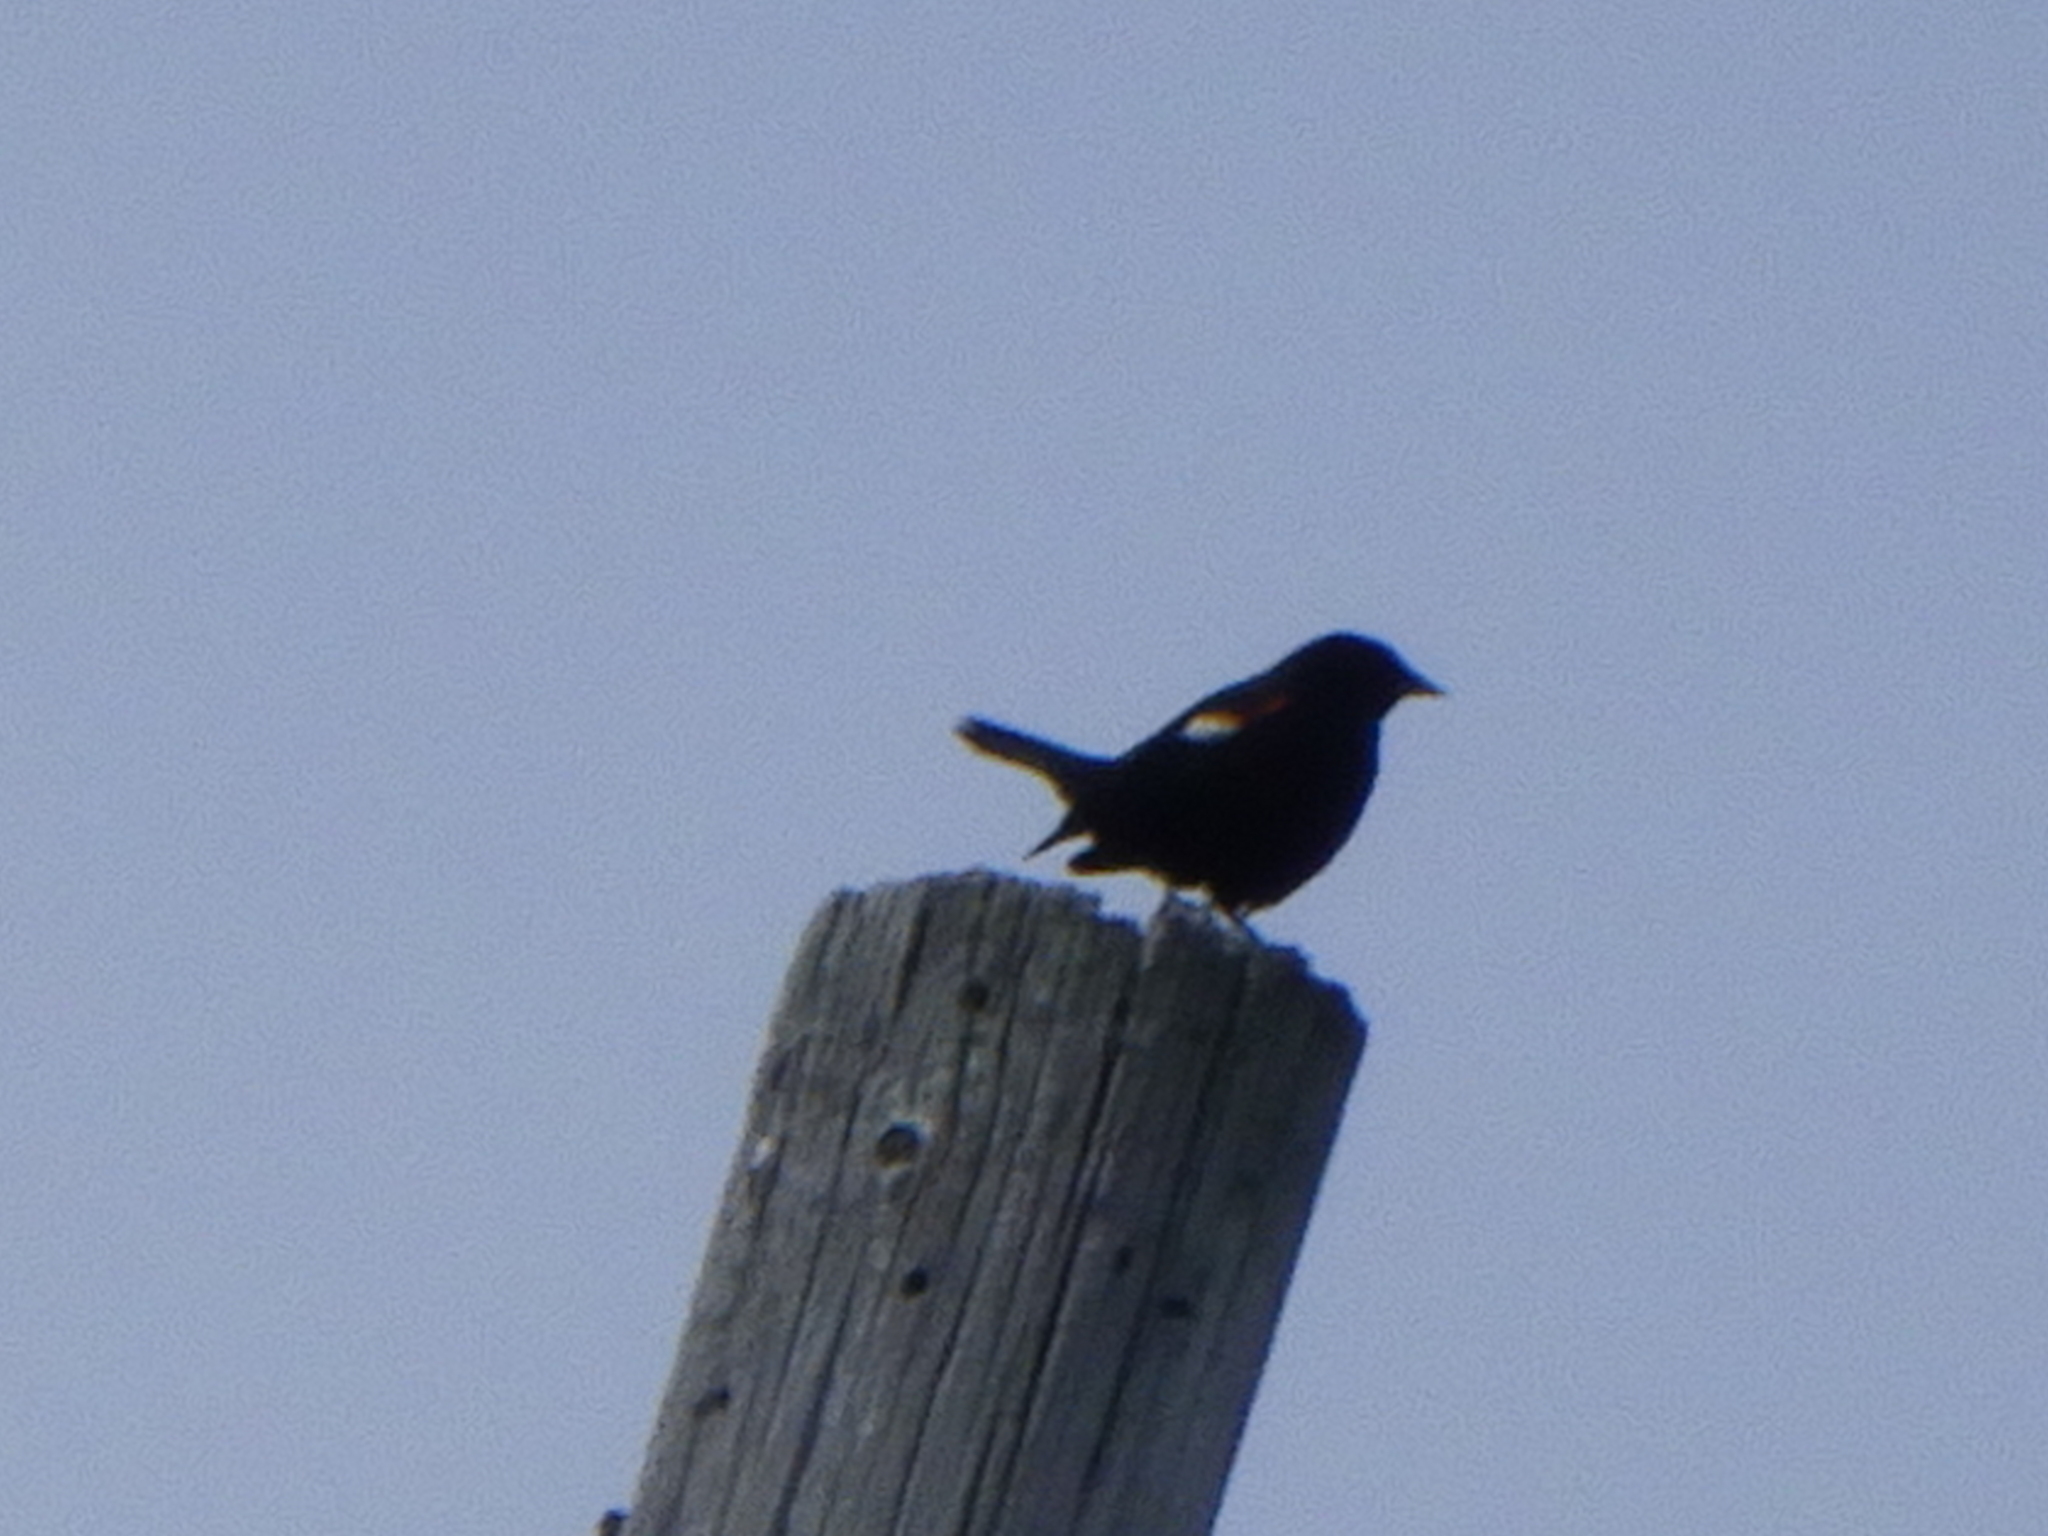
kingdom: Animalia
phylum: Chordata
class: Aves
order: Passeriformes
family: Icteridae
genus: Agelaius
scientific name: Agelaius phoeniceus
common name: Red-winged blackbird
